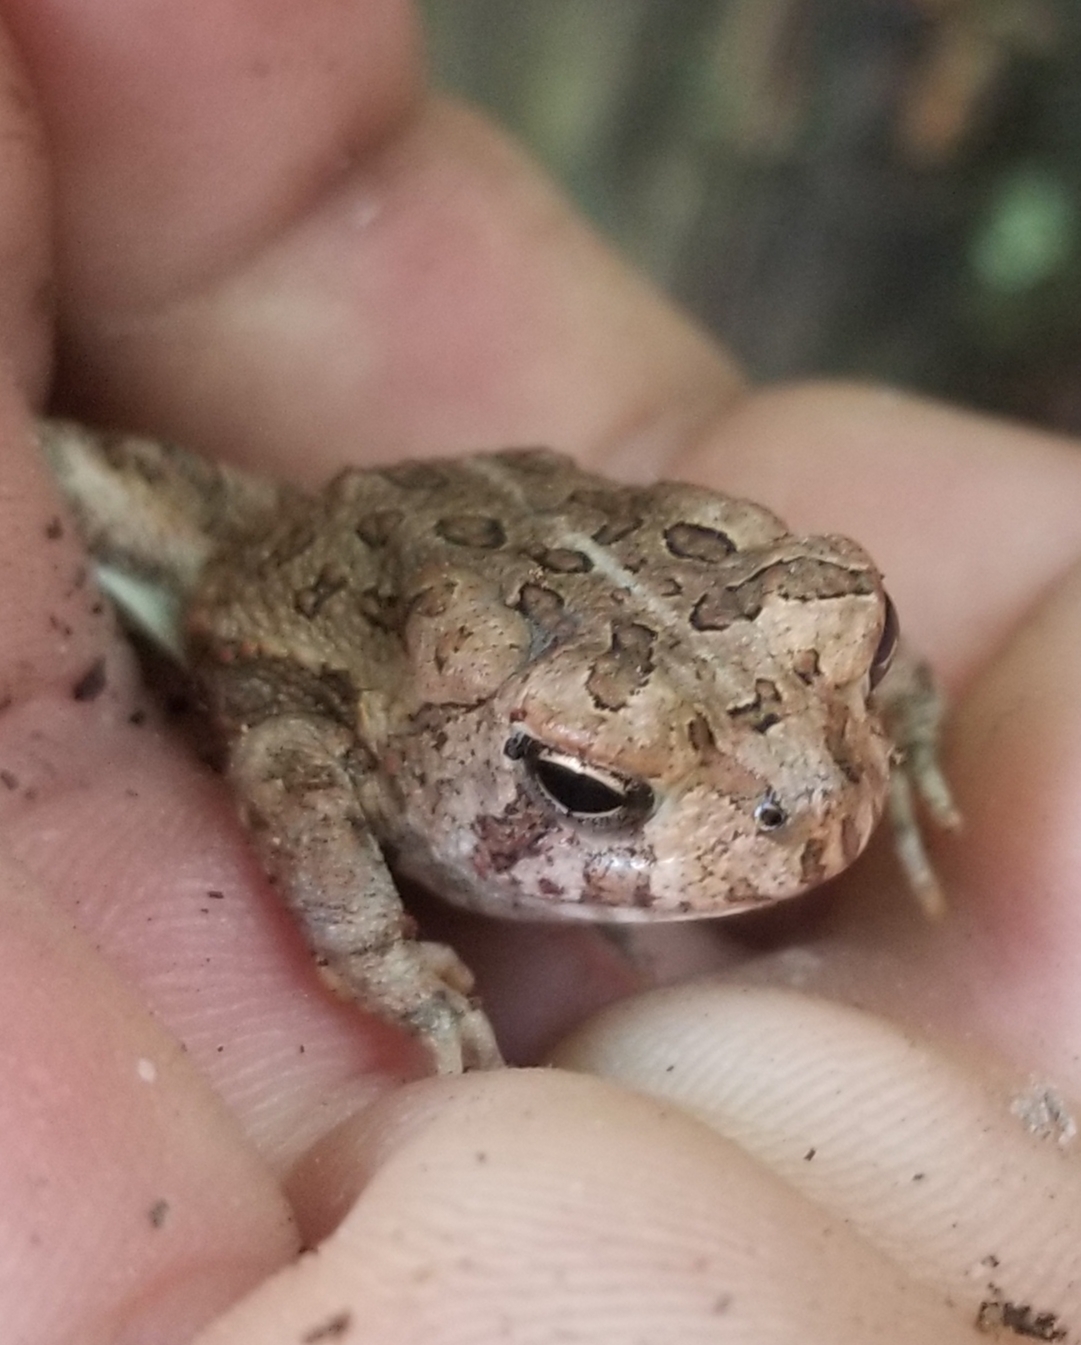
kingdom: Animalia
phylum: Chordata
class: Amphibia
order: Anura
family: Bufonidae
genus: Anaxyrus
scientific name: Anaxyrus fowleri
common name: Fowler's toad
